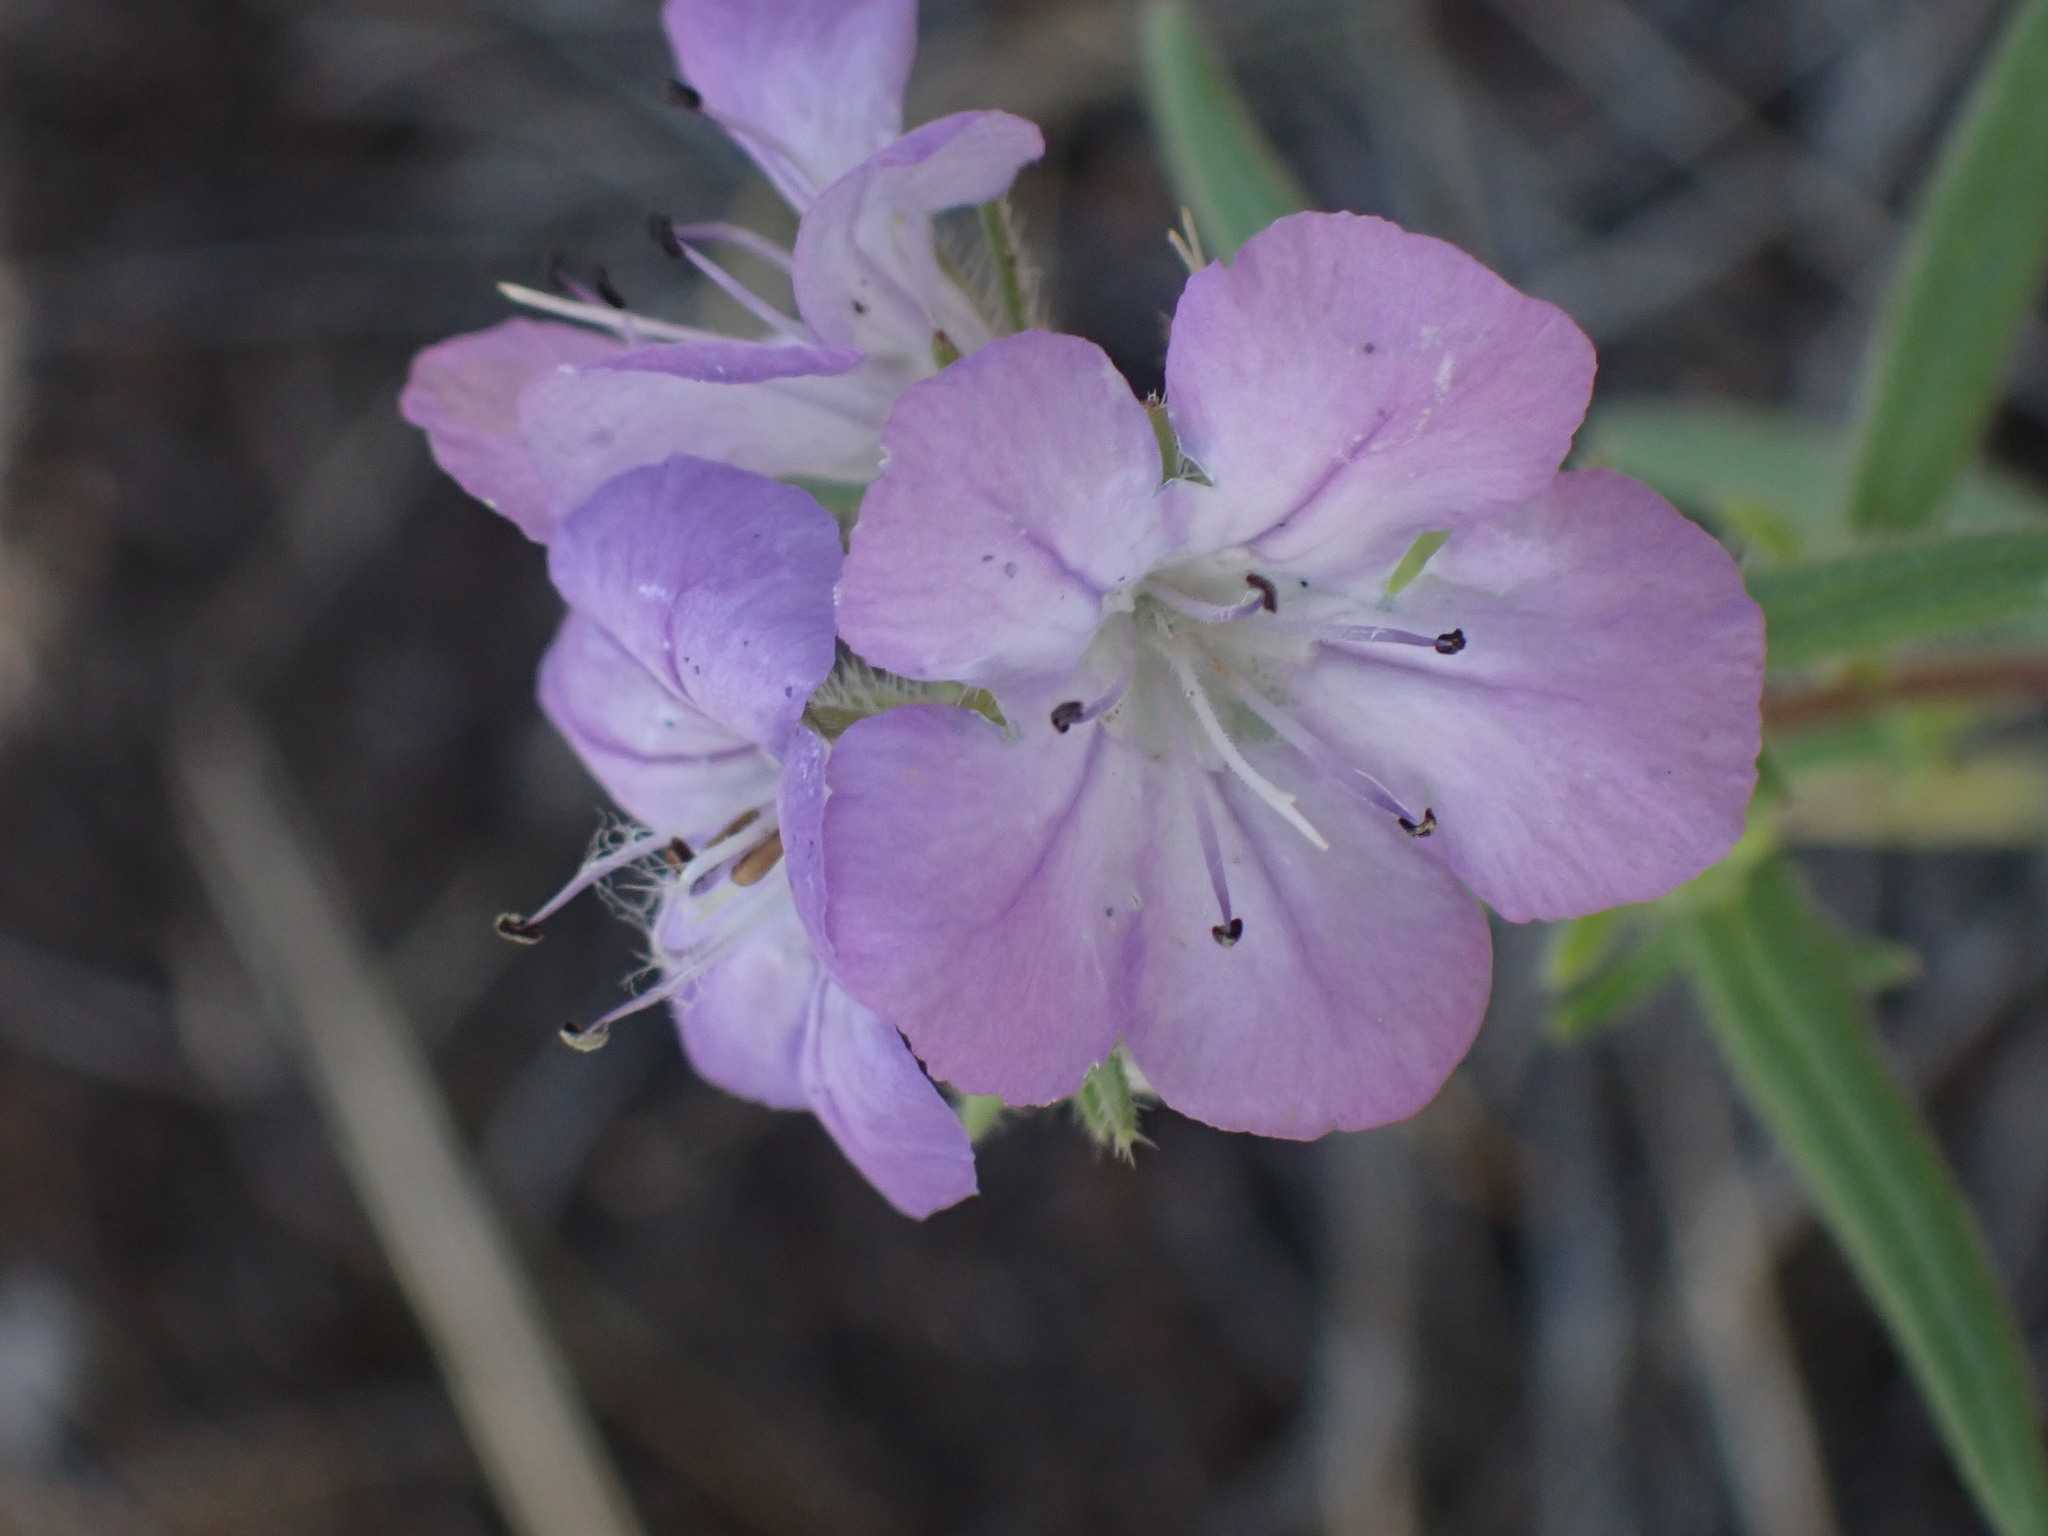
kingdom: Plantae
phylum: Tracheophyta
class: Magnoliopsida
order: Boraginales
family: Hydrophyllaceae
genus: Phacelia
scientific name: Phacelia linearis
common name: Linear-leaved phacelia
